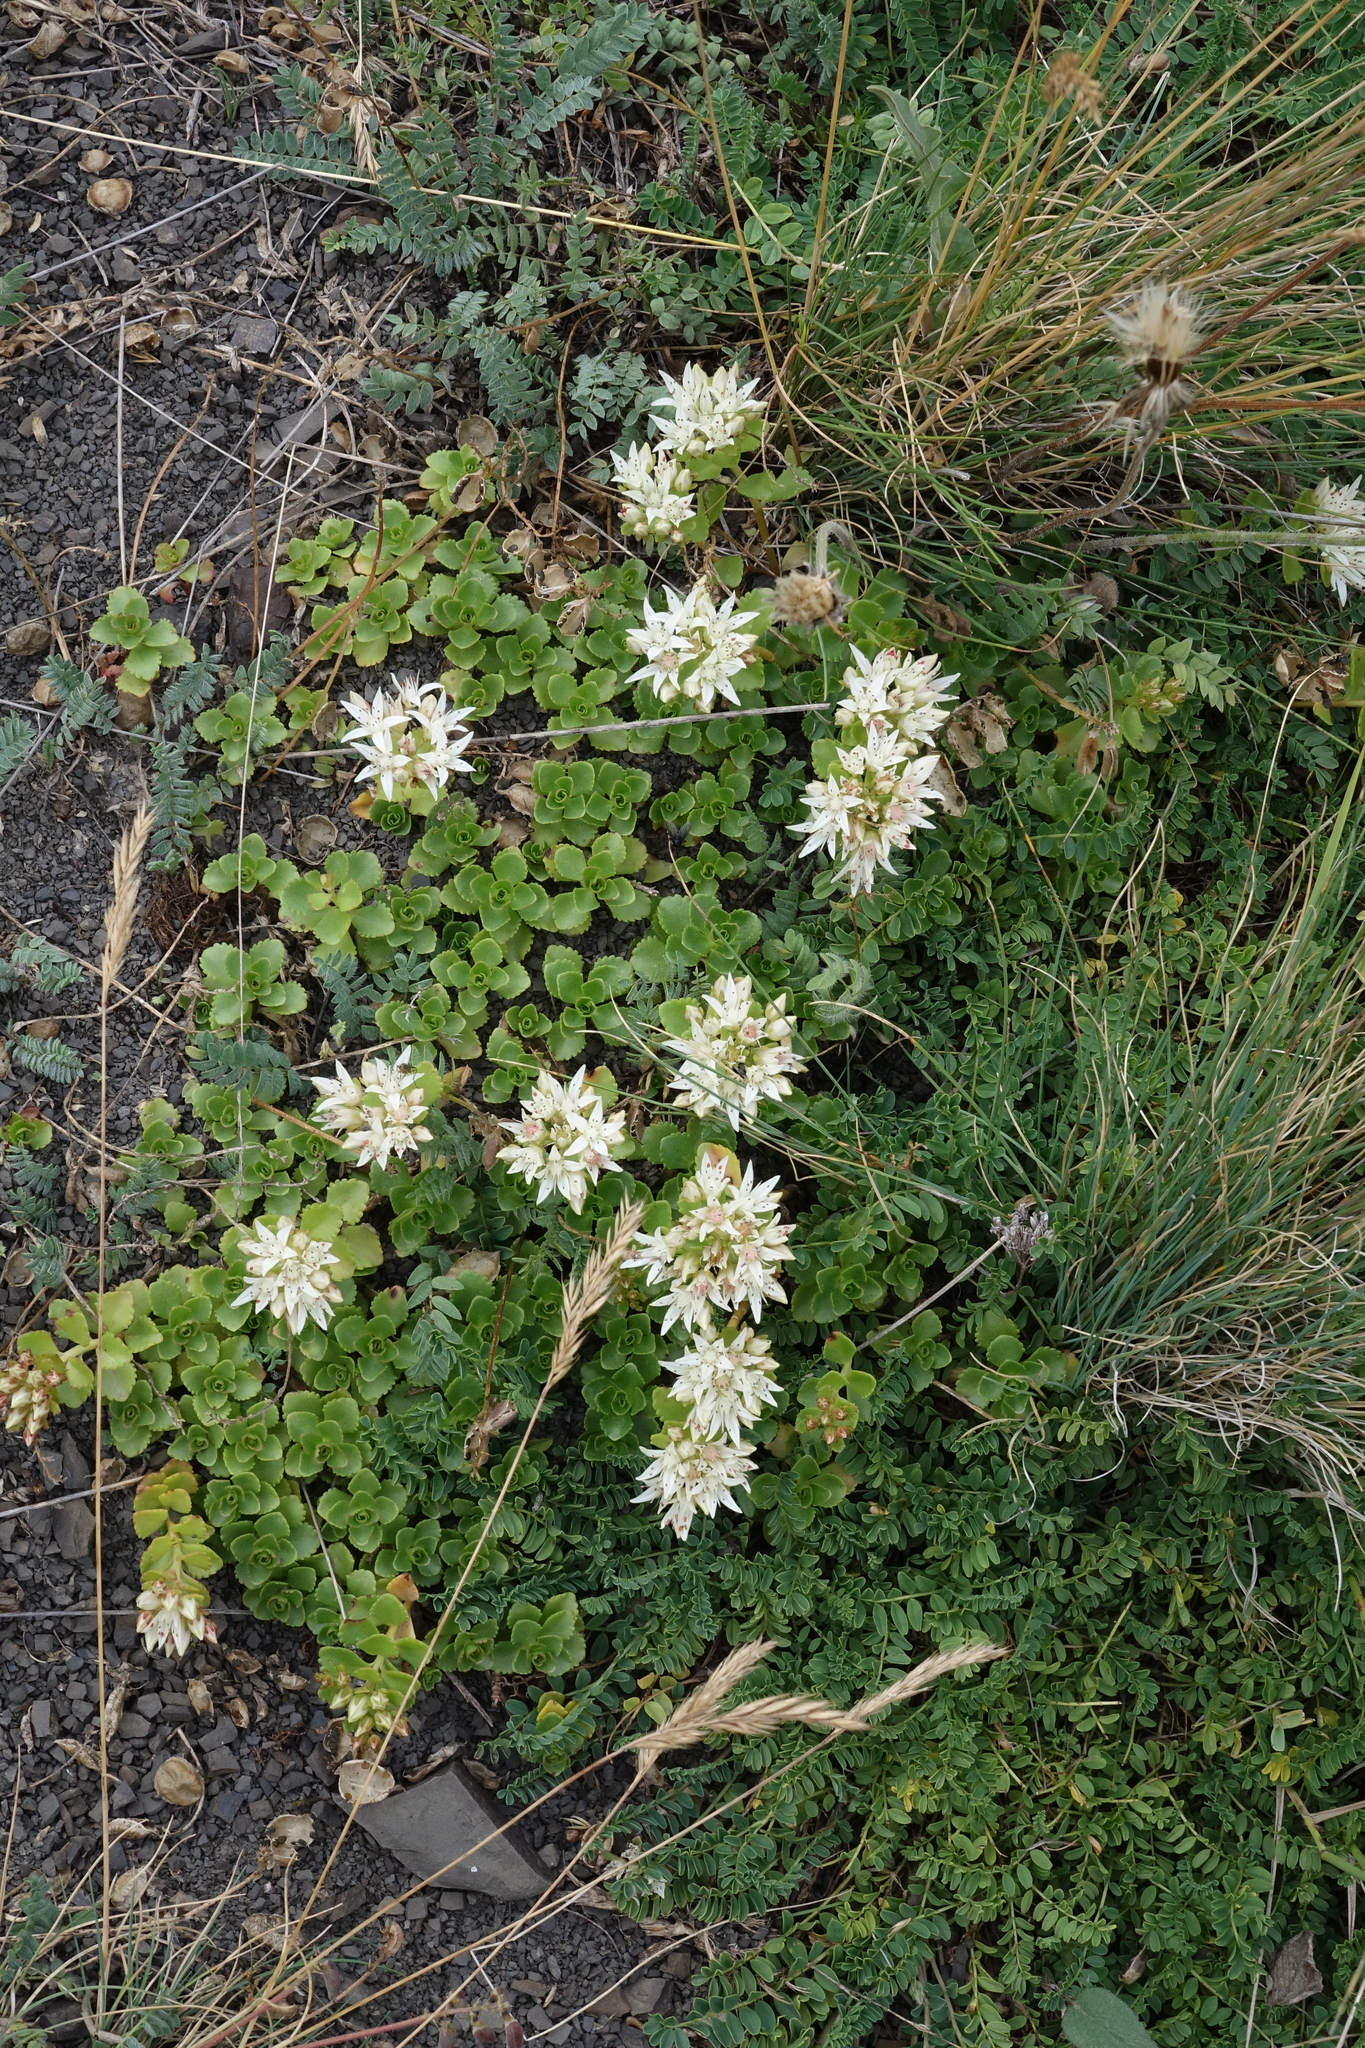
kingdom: Plantae
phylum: Tracheophyta
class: Magnoliopsida
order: Saxifragales
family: Crassulaceae
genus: Phedimus
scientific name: Phedimus spurius
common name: Caucasian stonecrop
